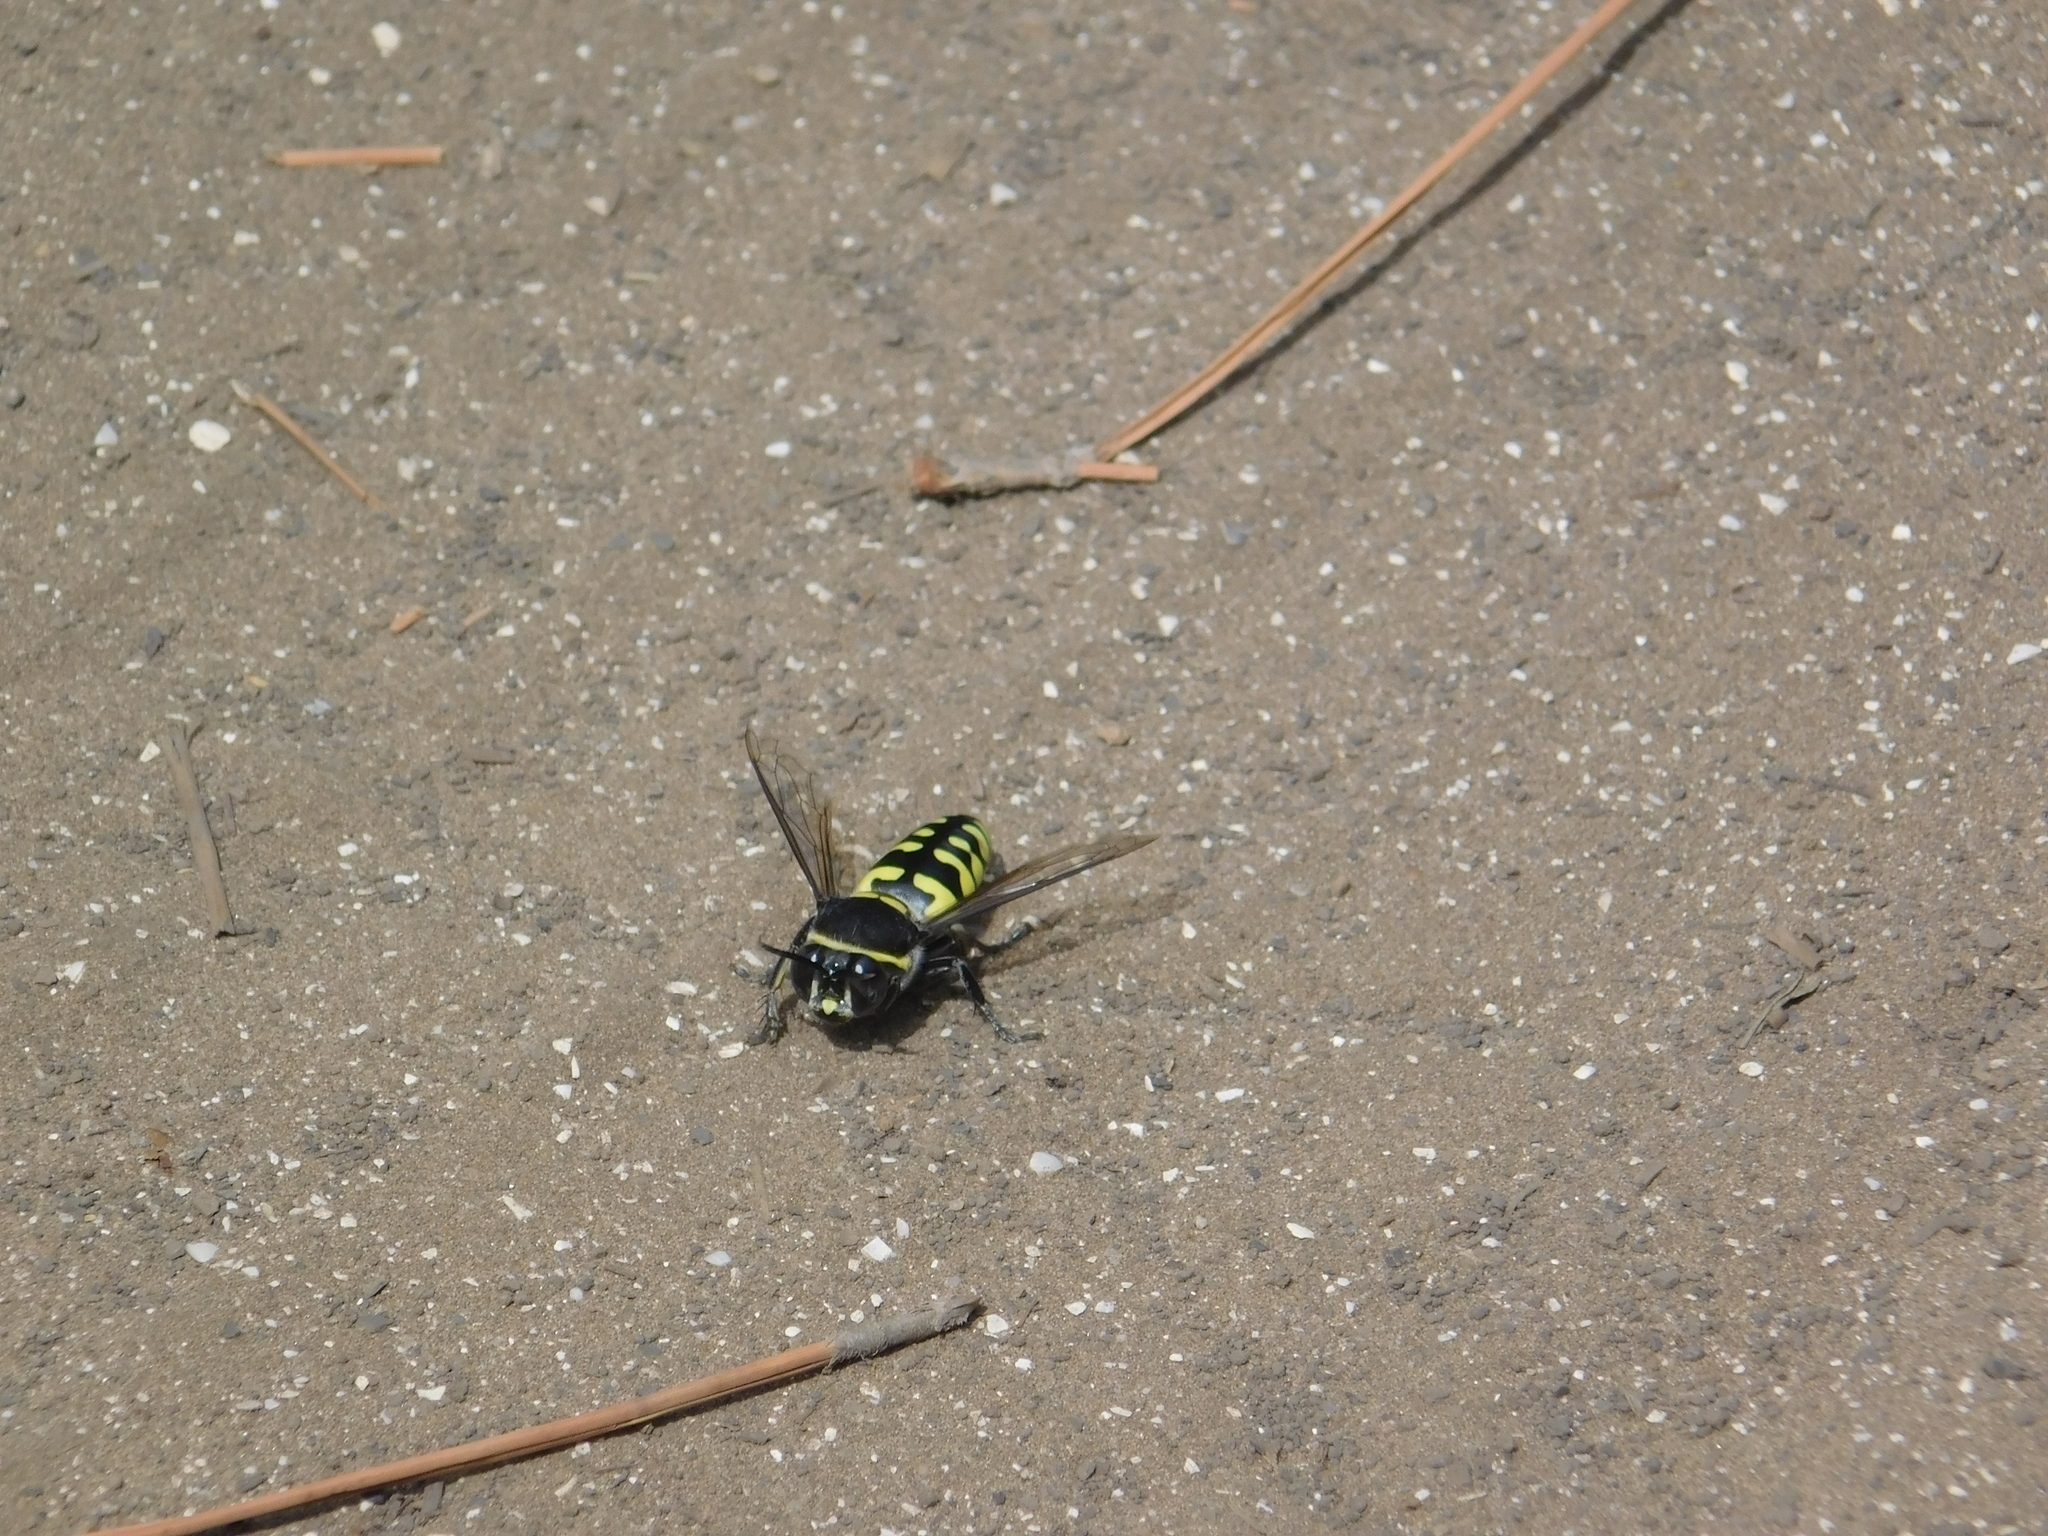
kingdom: Animalia
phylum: Arthropoda
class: Insecta
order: Hymenoptera
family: Crabronidae
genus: Stictia
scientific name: Stictia arcuata
